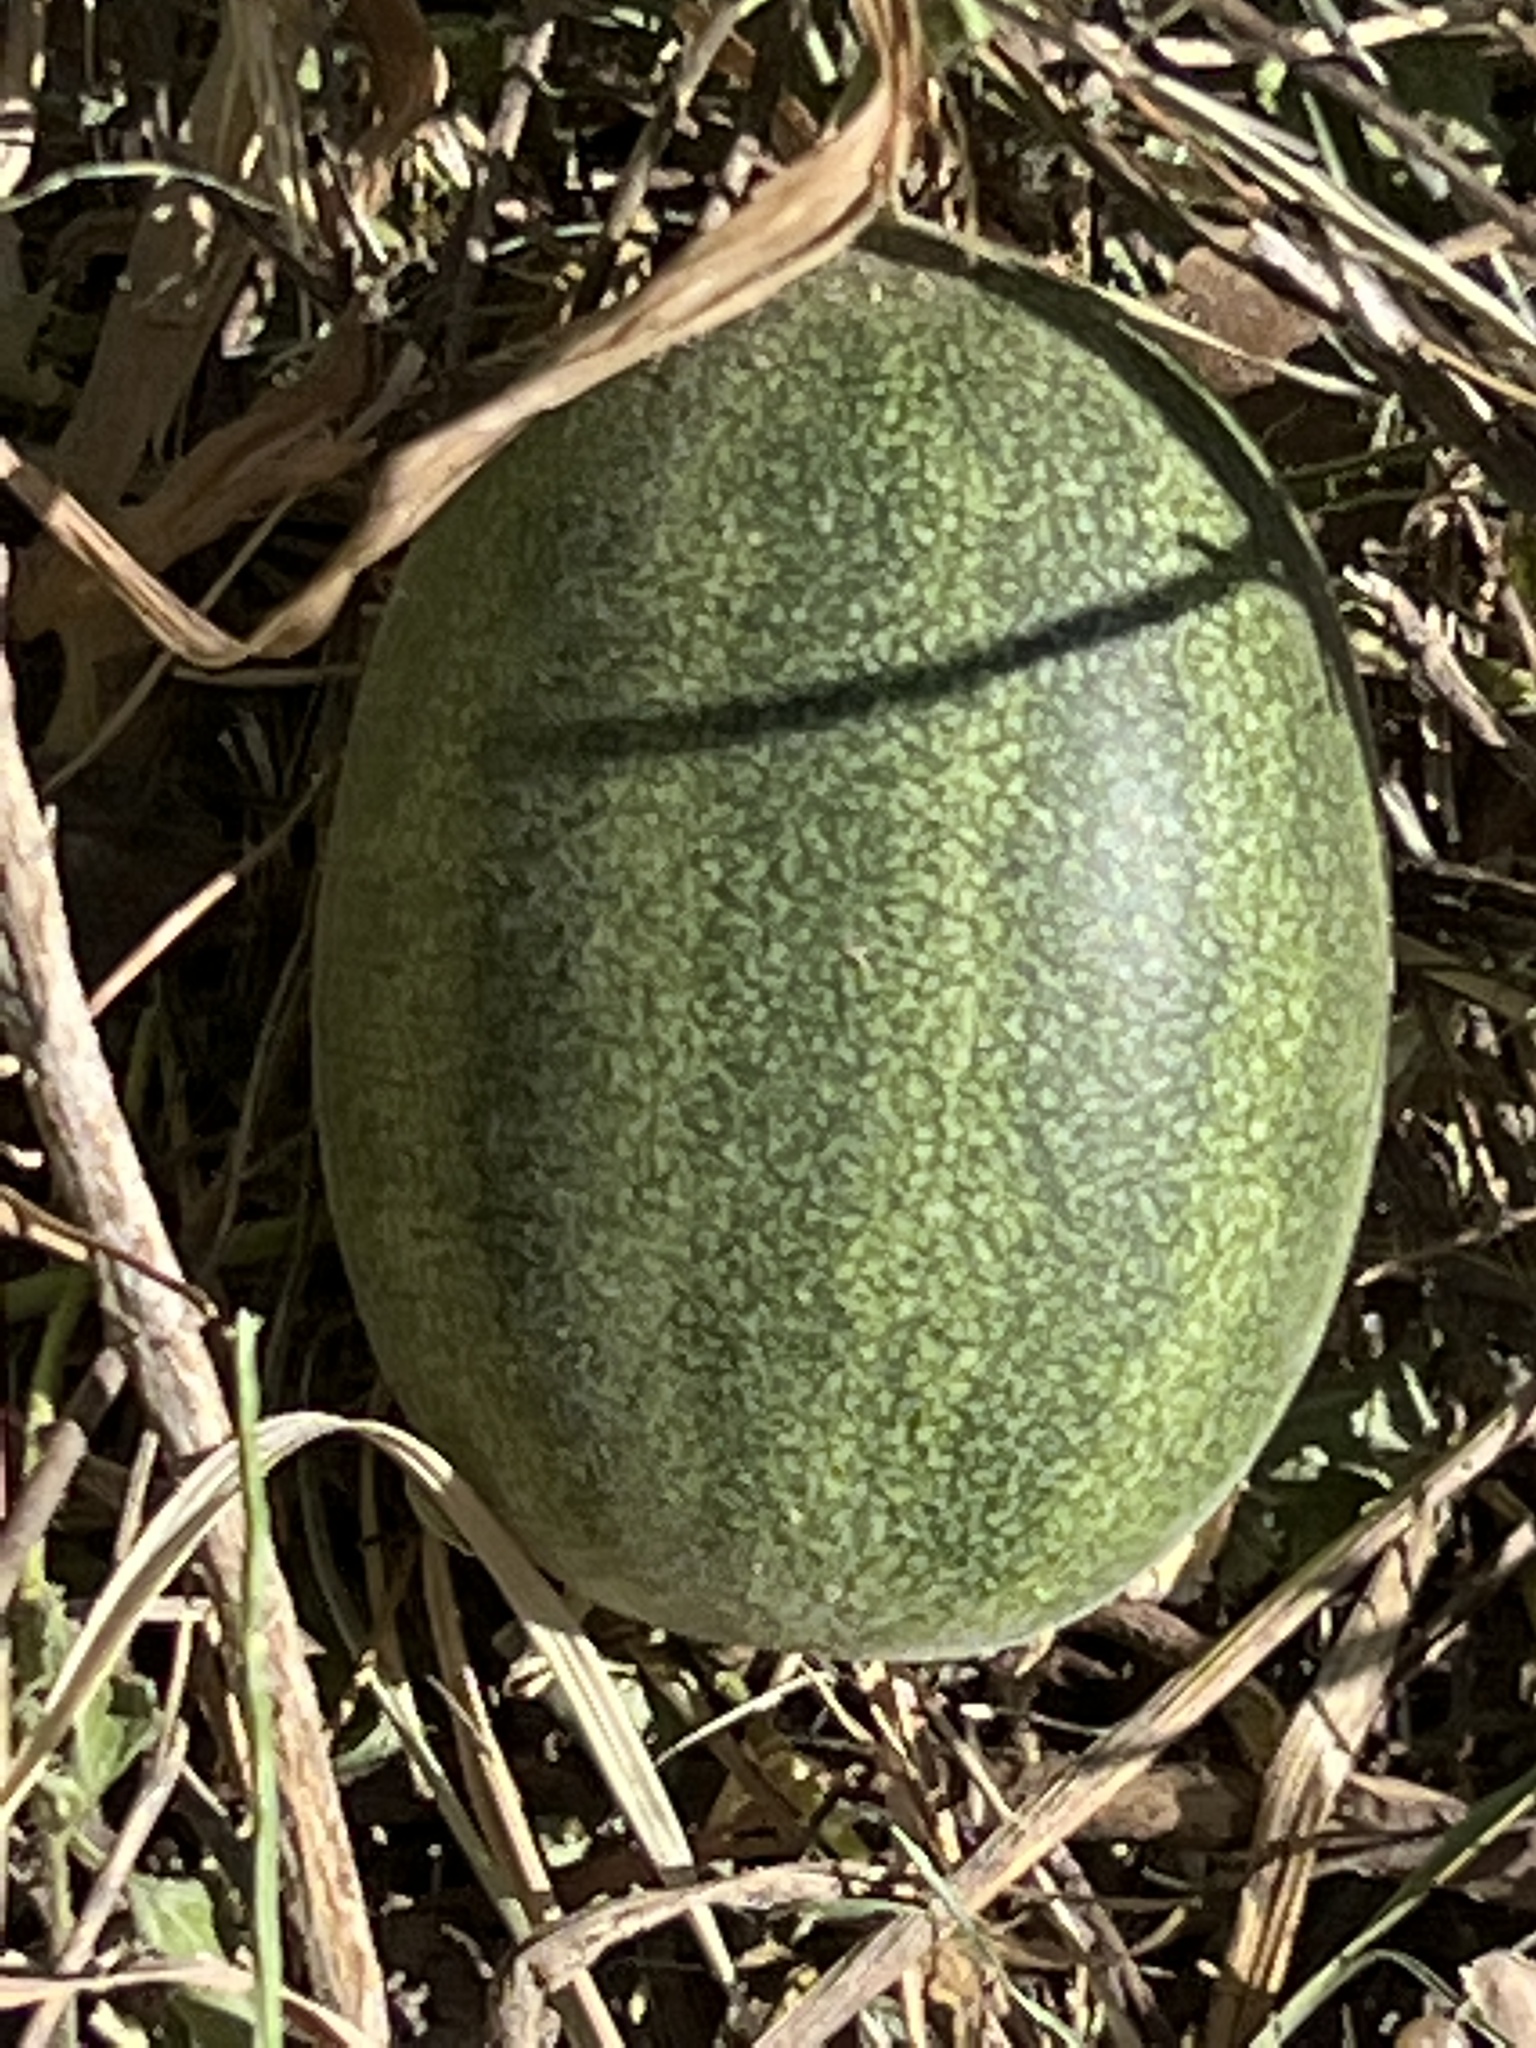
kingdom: Plantae
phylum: Tracheophyta
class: Magnoliopsida
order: Cucurbitales
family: Cucurbitaceae
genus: Cucumis
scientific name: Cucumis melo
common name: Melon
